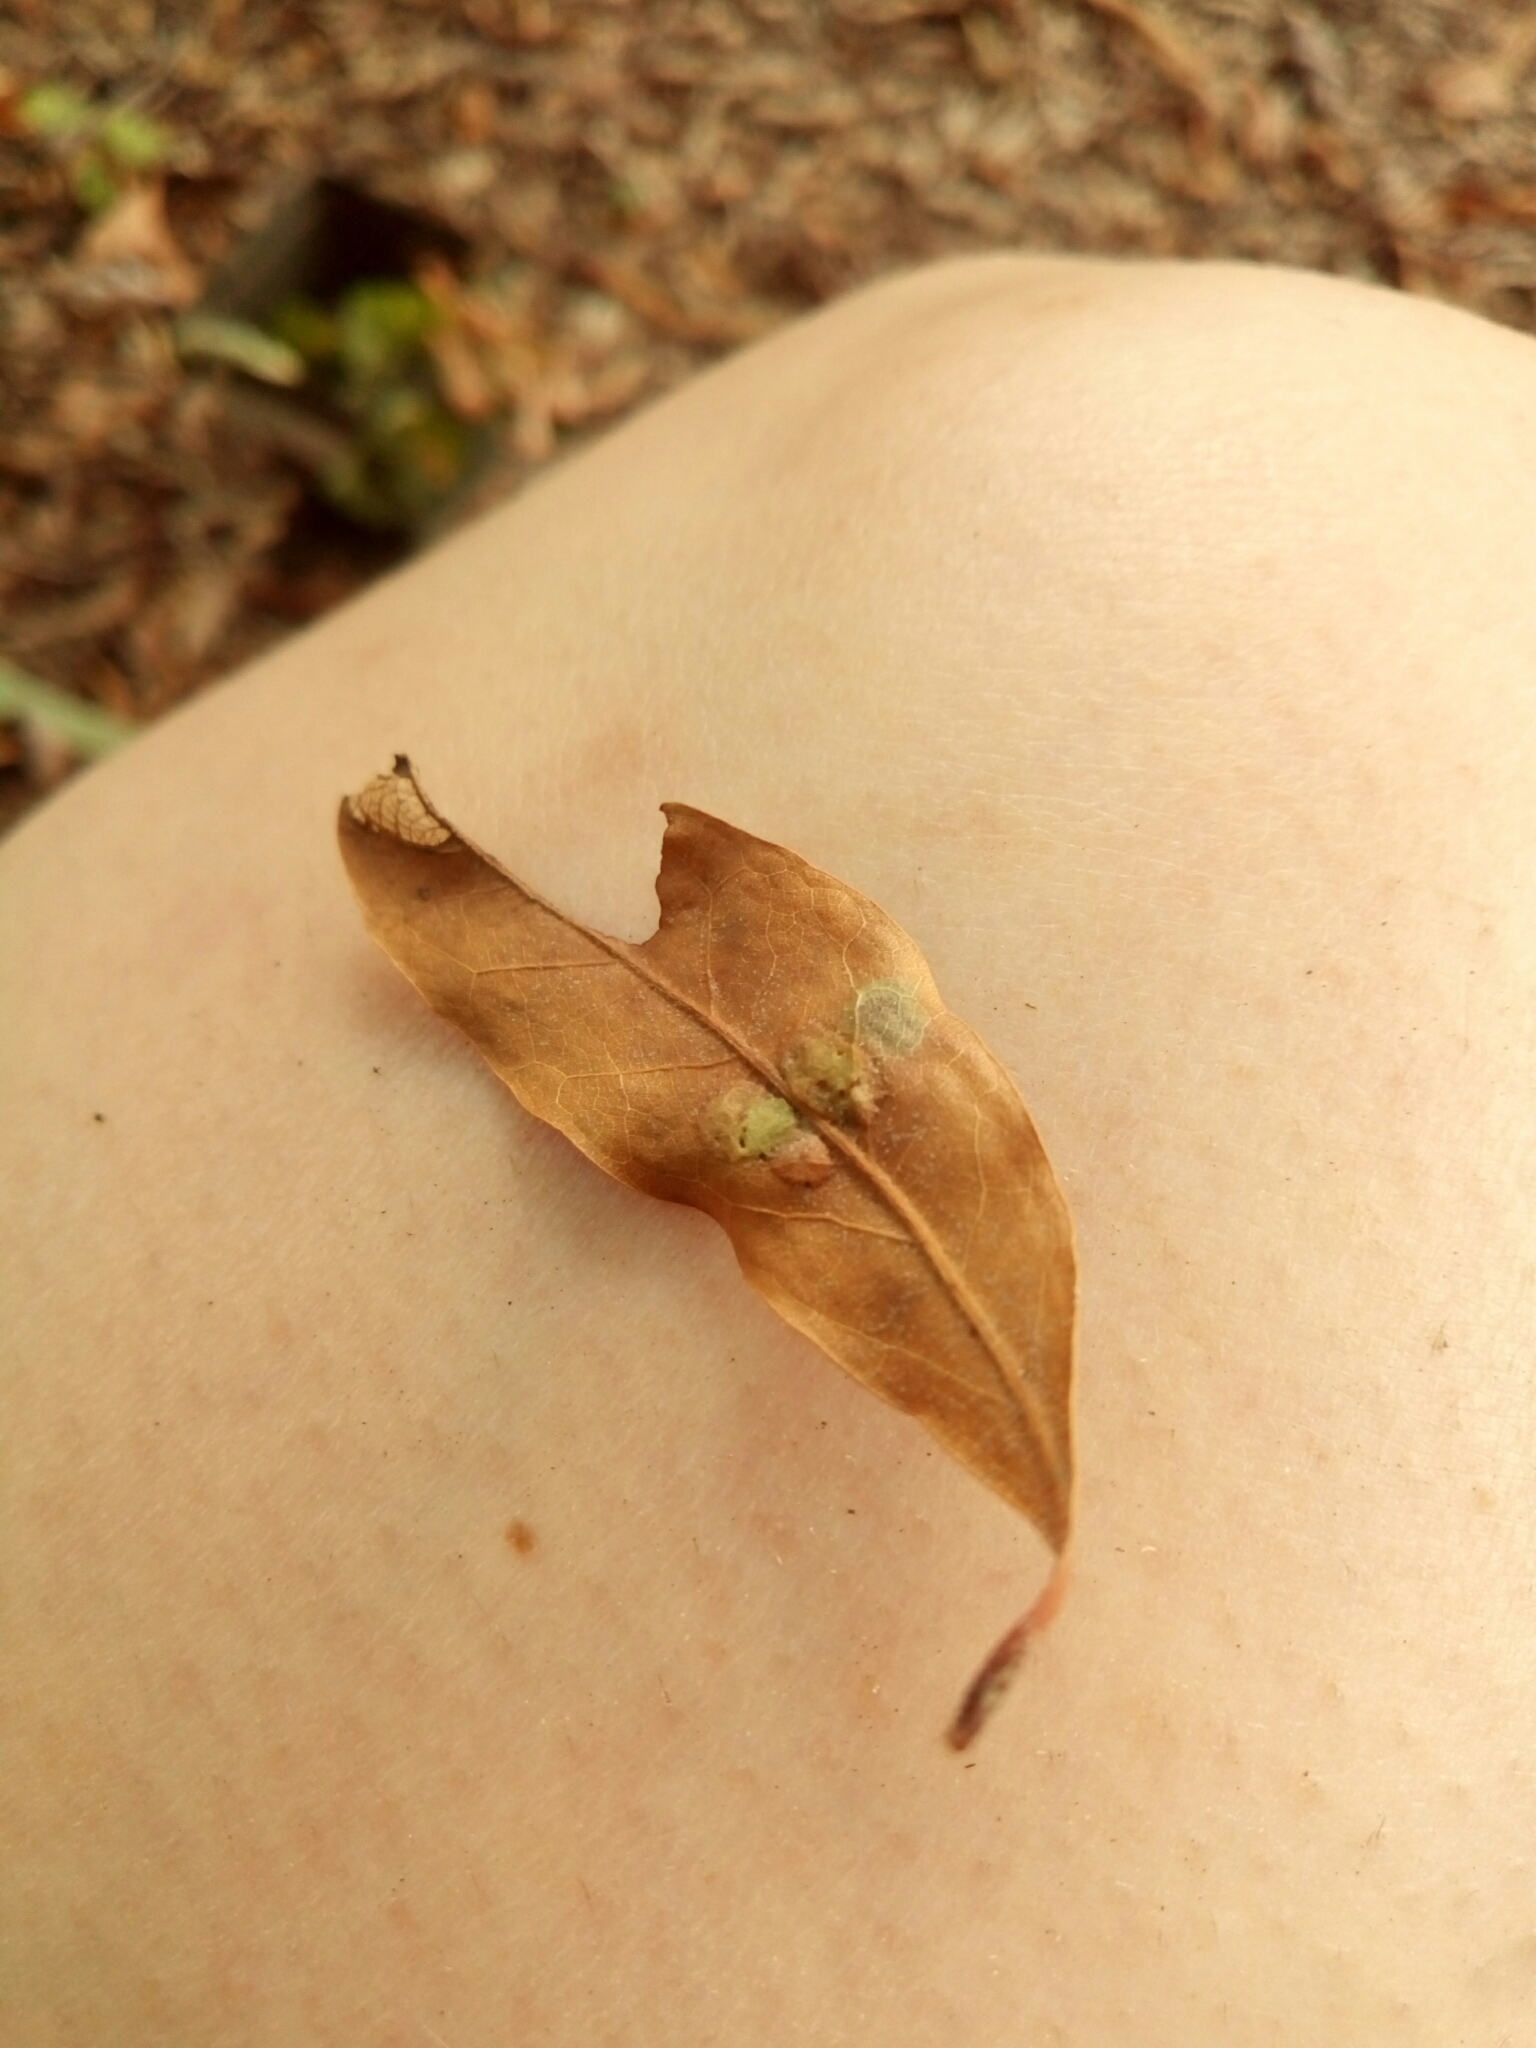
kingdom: Animalia
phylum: Arthropoda
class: Insecta
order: Diptera
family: Cecidomyiidae
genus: Polystepha
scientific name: Polystepha pilulae
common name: Oak leaf gall midge
